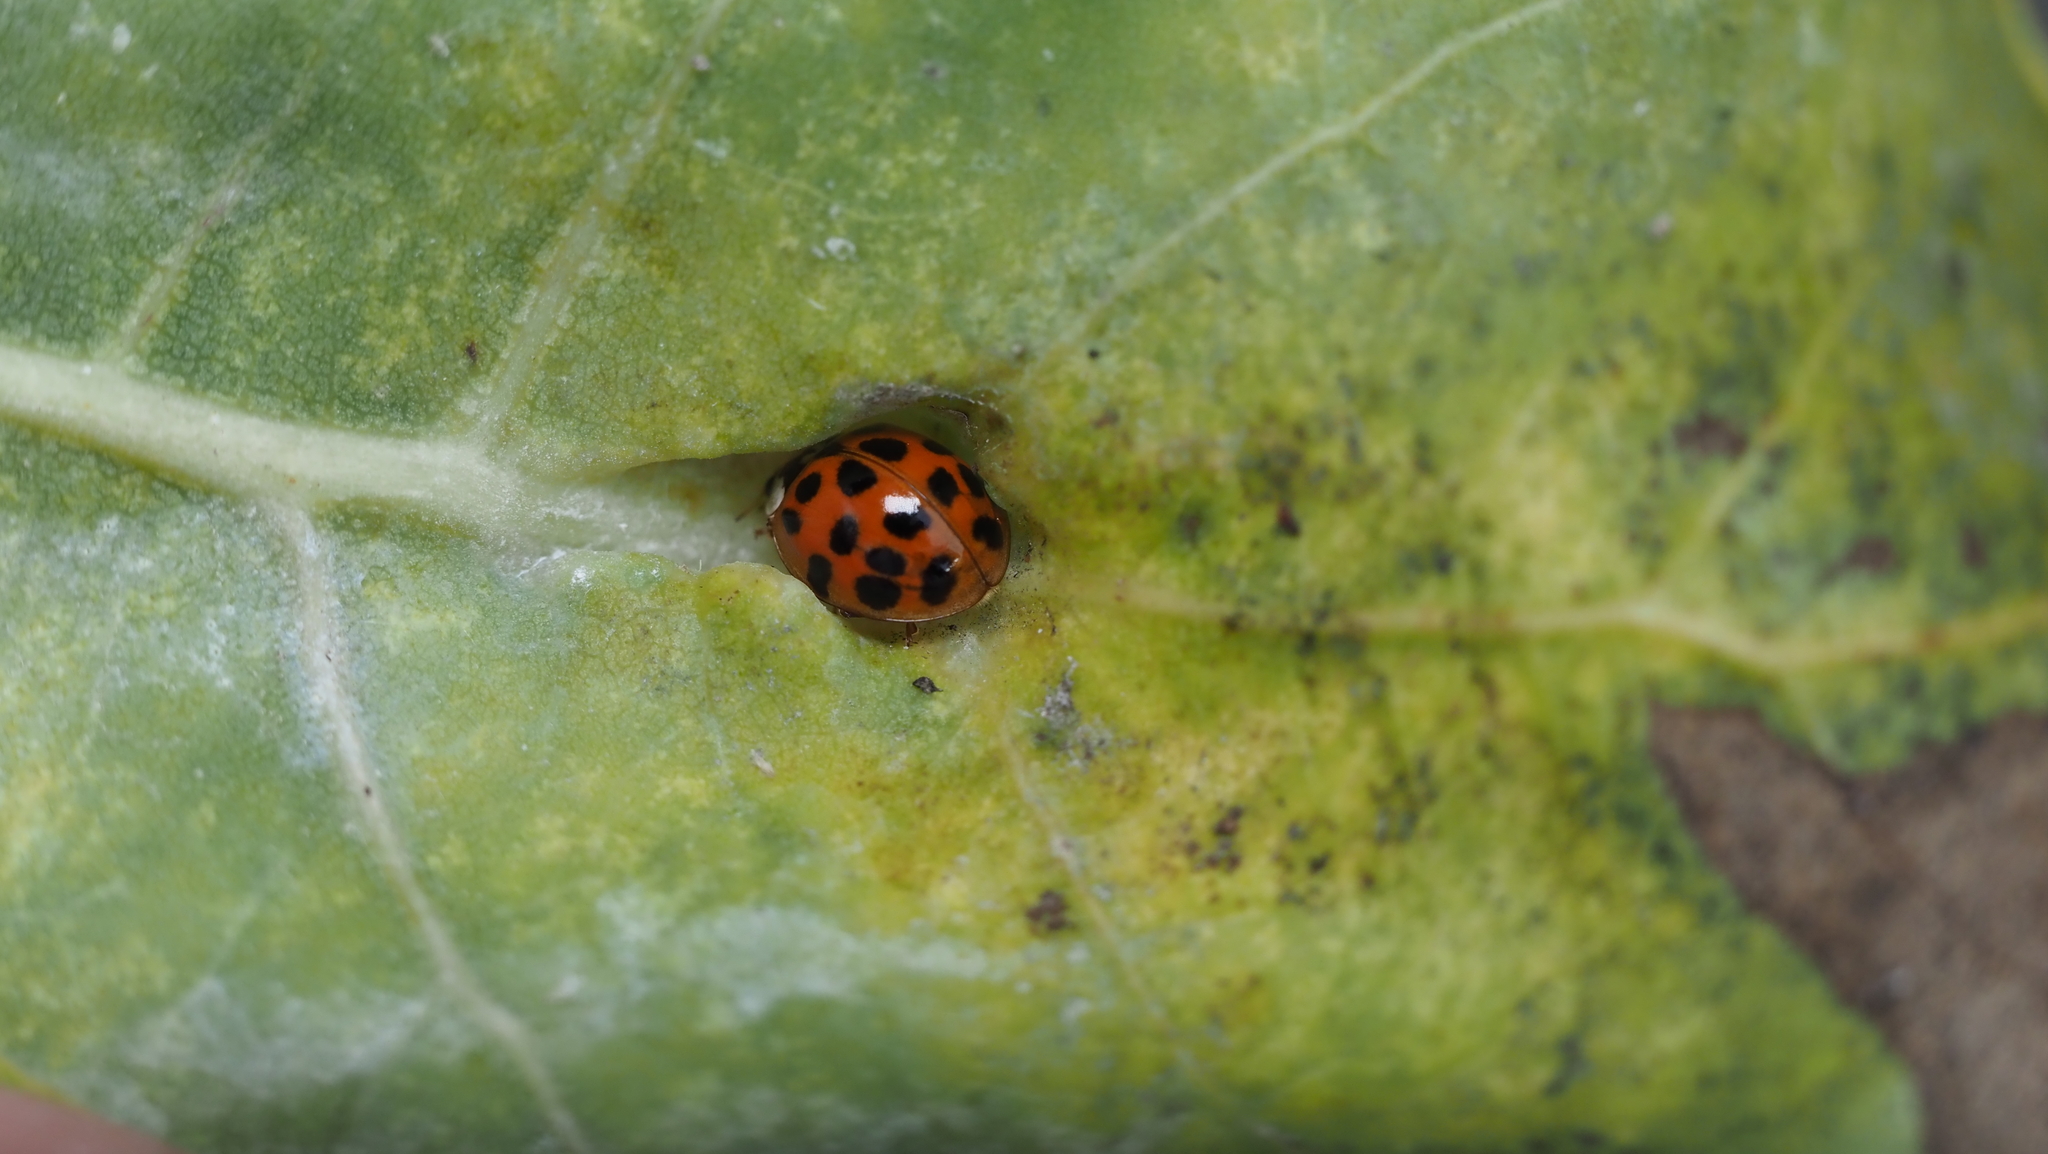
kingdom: Animalia
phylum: Arthropoda
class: Insecta
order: Coleoptera
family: Coccinellidae
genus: Harmonia
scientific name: Harmonia axyridis
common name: Harlequin ladybird
